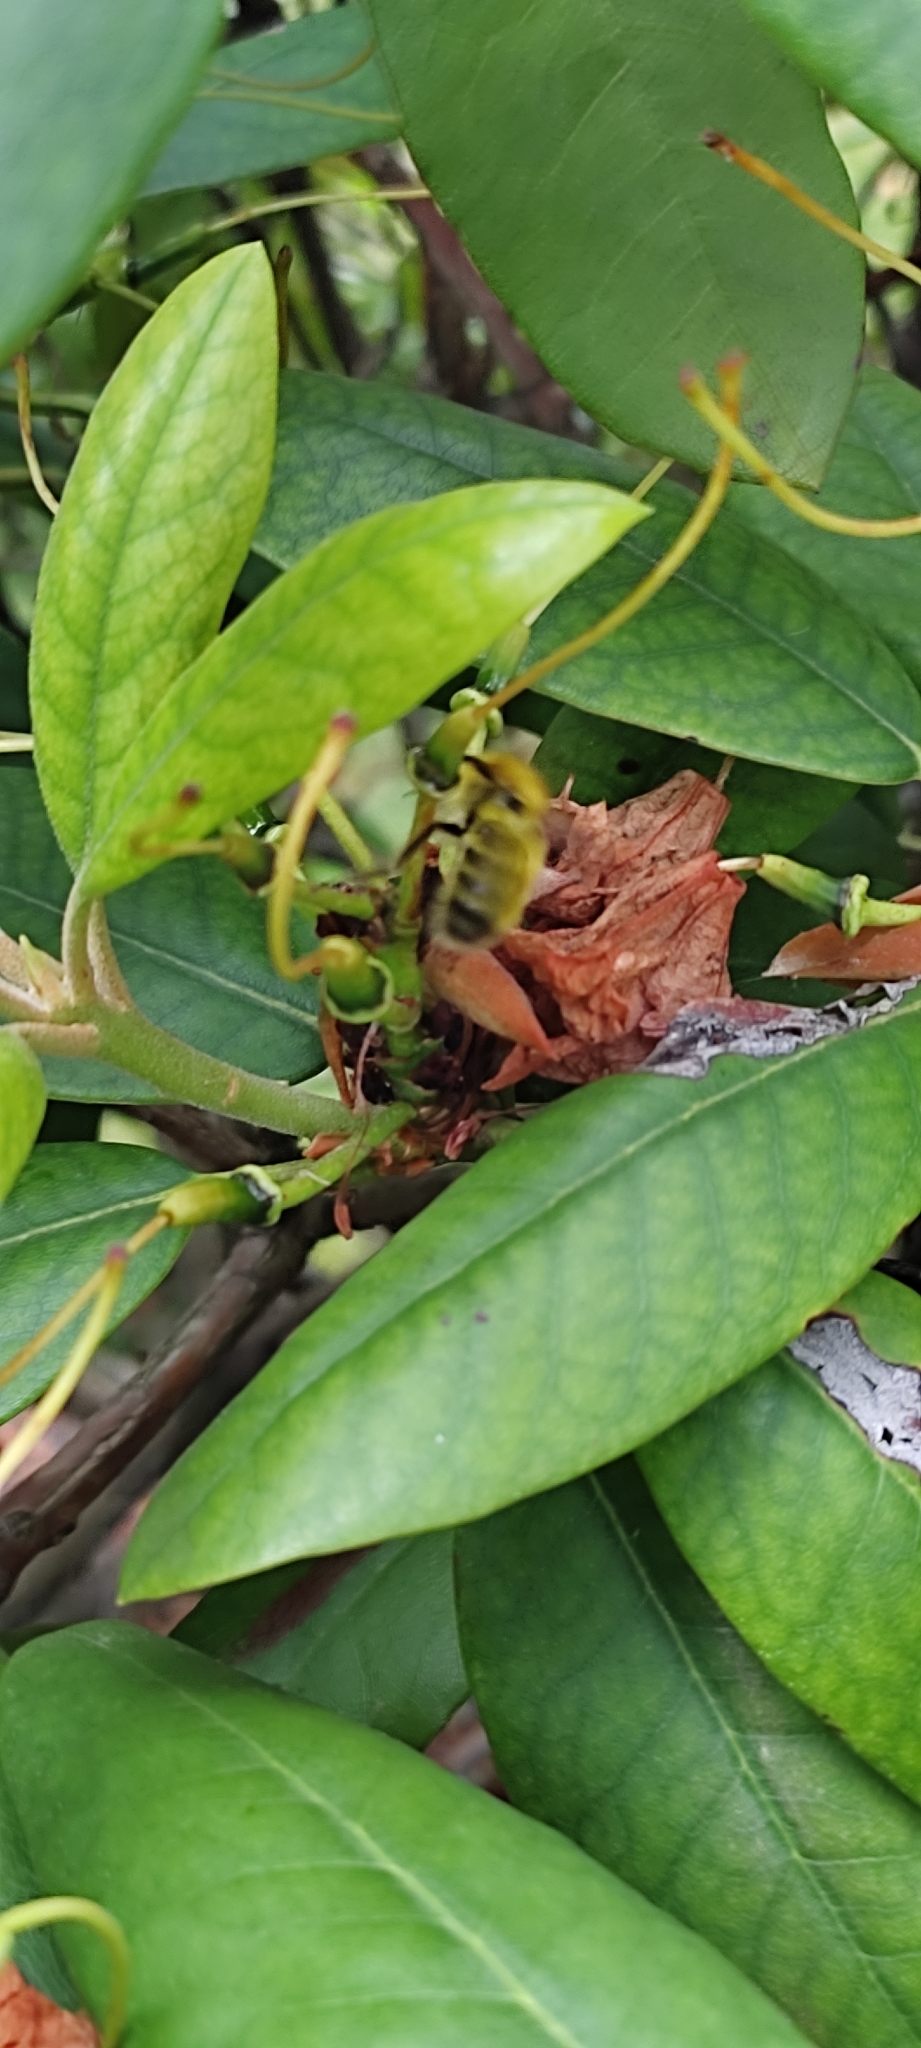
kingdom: Animalia
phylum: Arthropoda
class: Insecta
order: Hymenoptera
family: Apidae
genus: Bombus
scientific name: Bombus perplexus
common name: Confusing bumble bee
